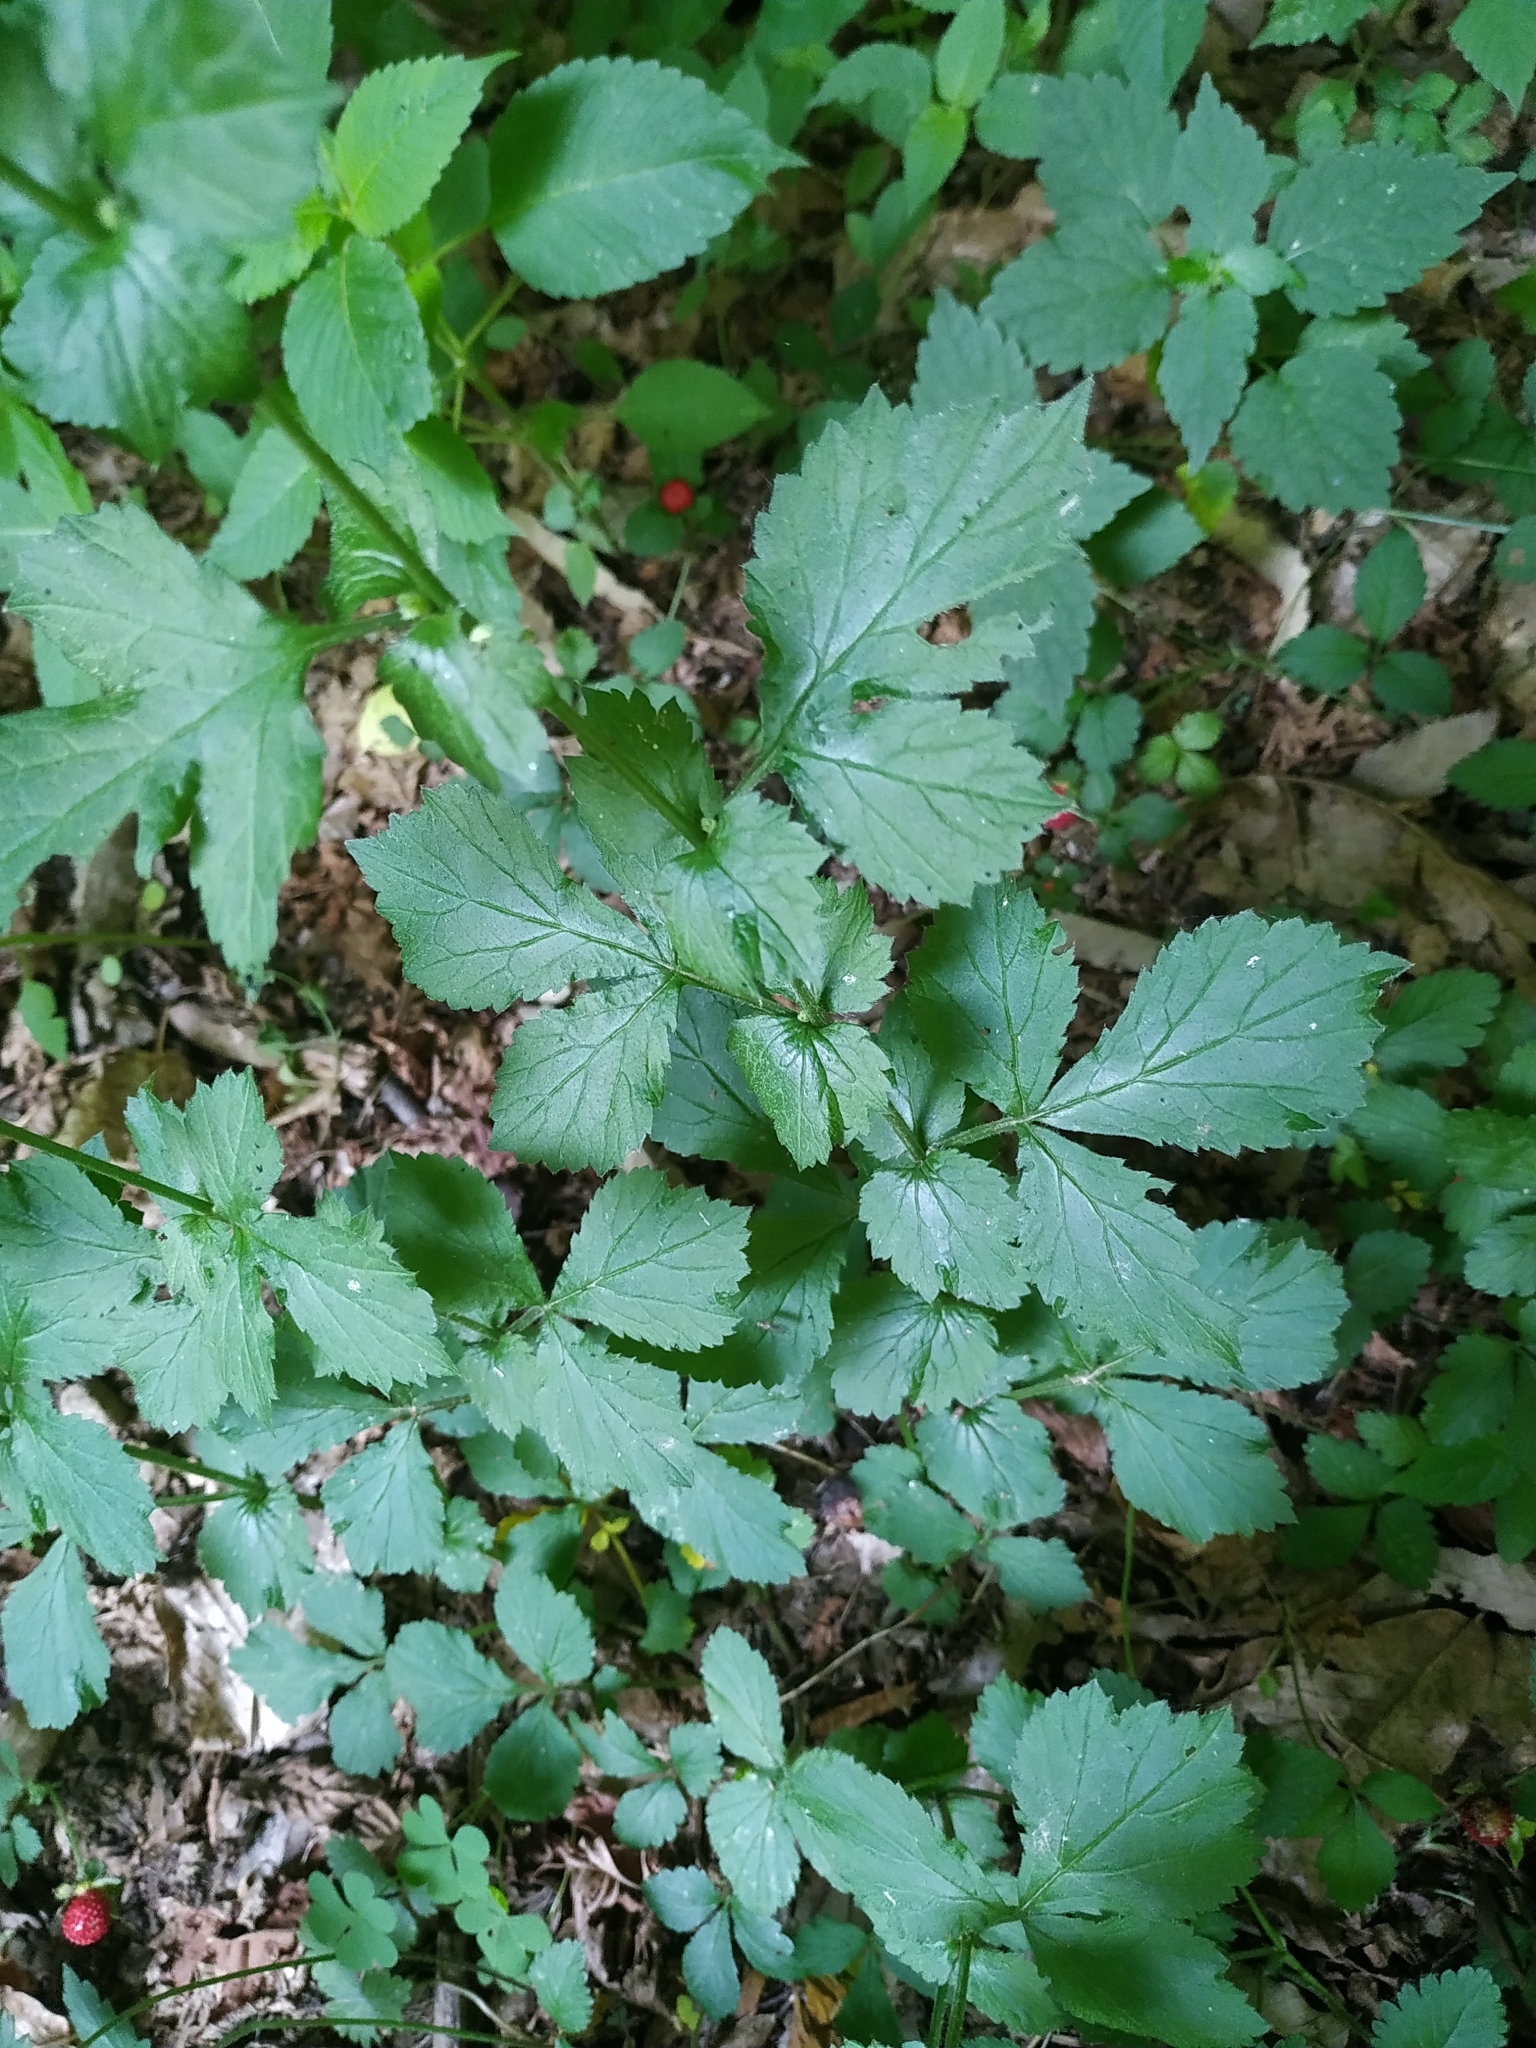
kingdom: Plantae
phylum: Tracheophyta
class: Magnoliopsida
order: Rosales
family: Rosaceae
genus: Geum
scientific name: Geum urbanum
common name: Wood avens
